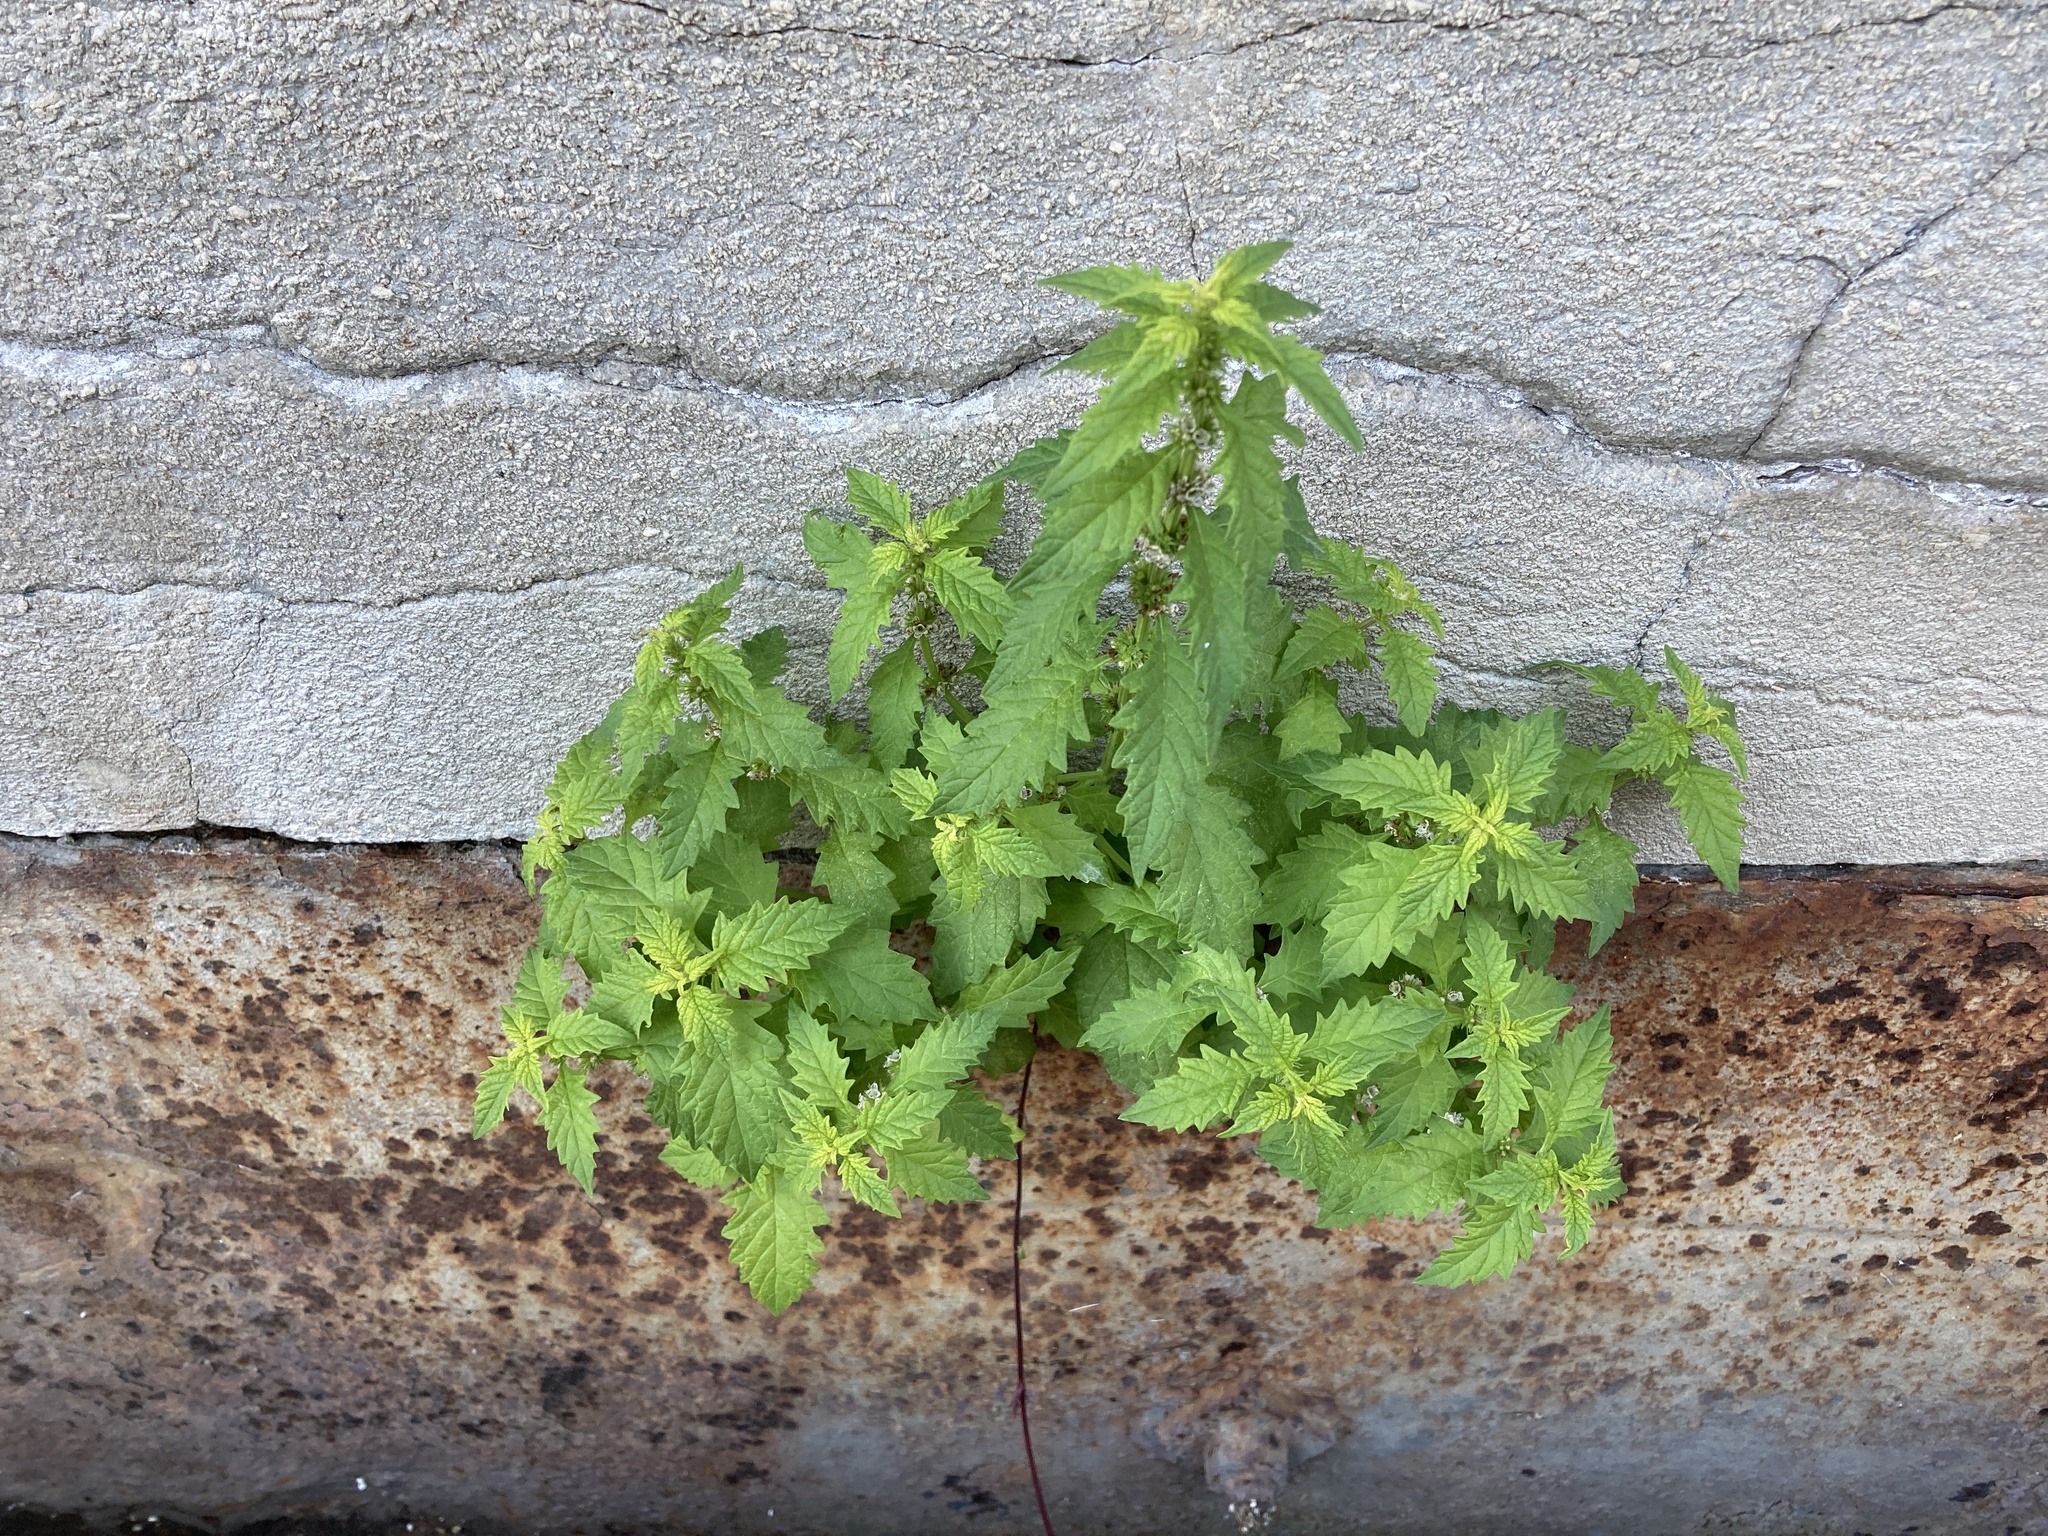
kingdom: Plantae
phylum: Tracheophyta
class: Magnoliopsida
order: Lamiales
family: Lamiaceae
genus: Lycopus
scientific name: Lycopus europaeus
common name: European bugleweed
